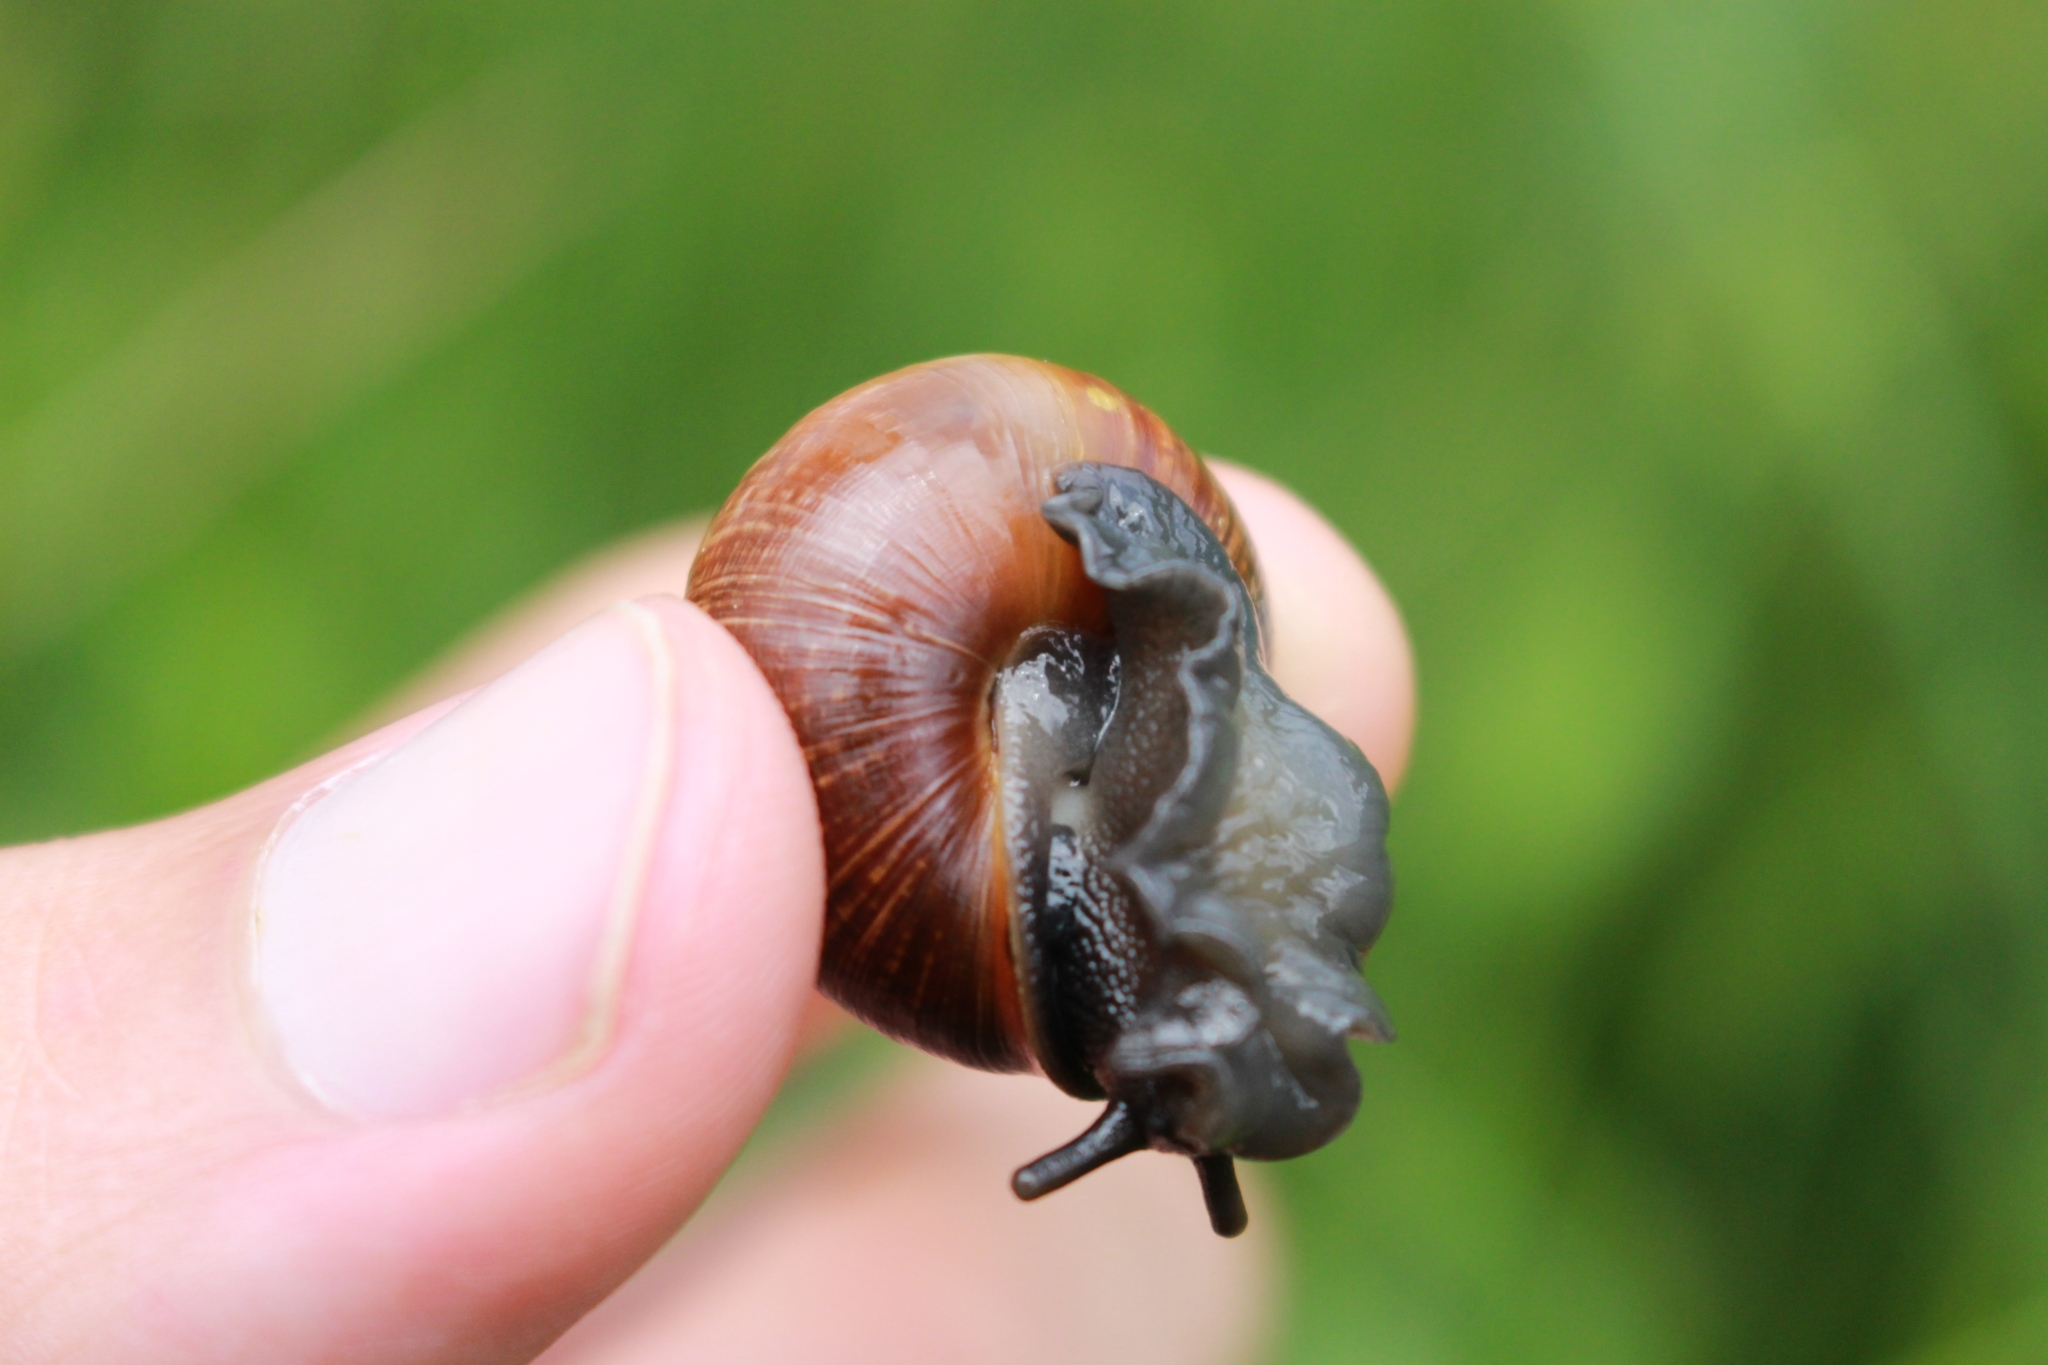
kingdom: Animalia
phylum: Mollusca
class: Gastropoda
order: Stylommatophora
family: Helicidae
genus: Arianta
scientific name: Arianta arbustorum
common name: Copse snail
